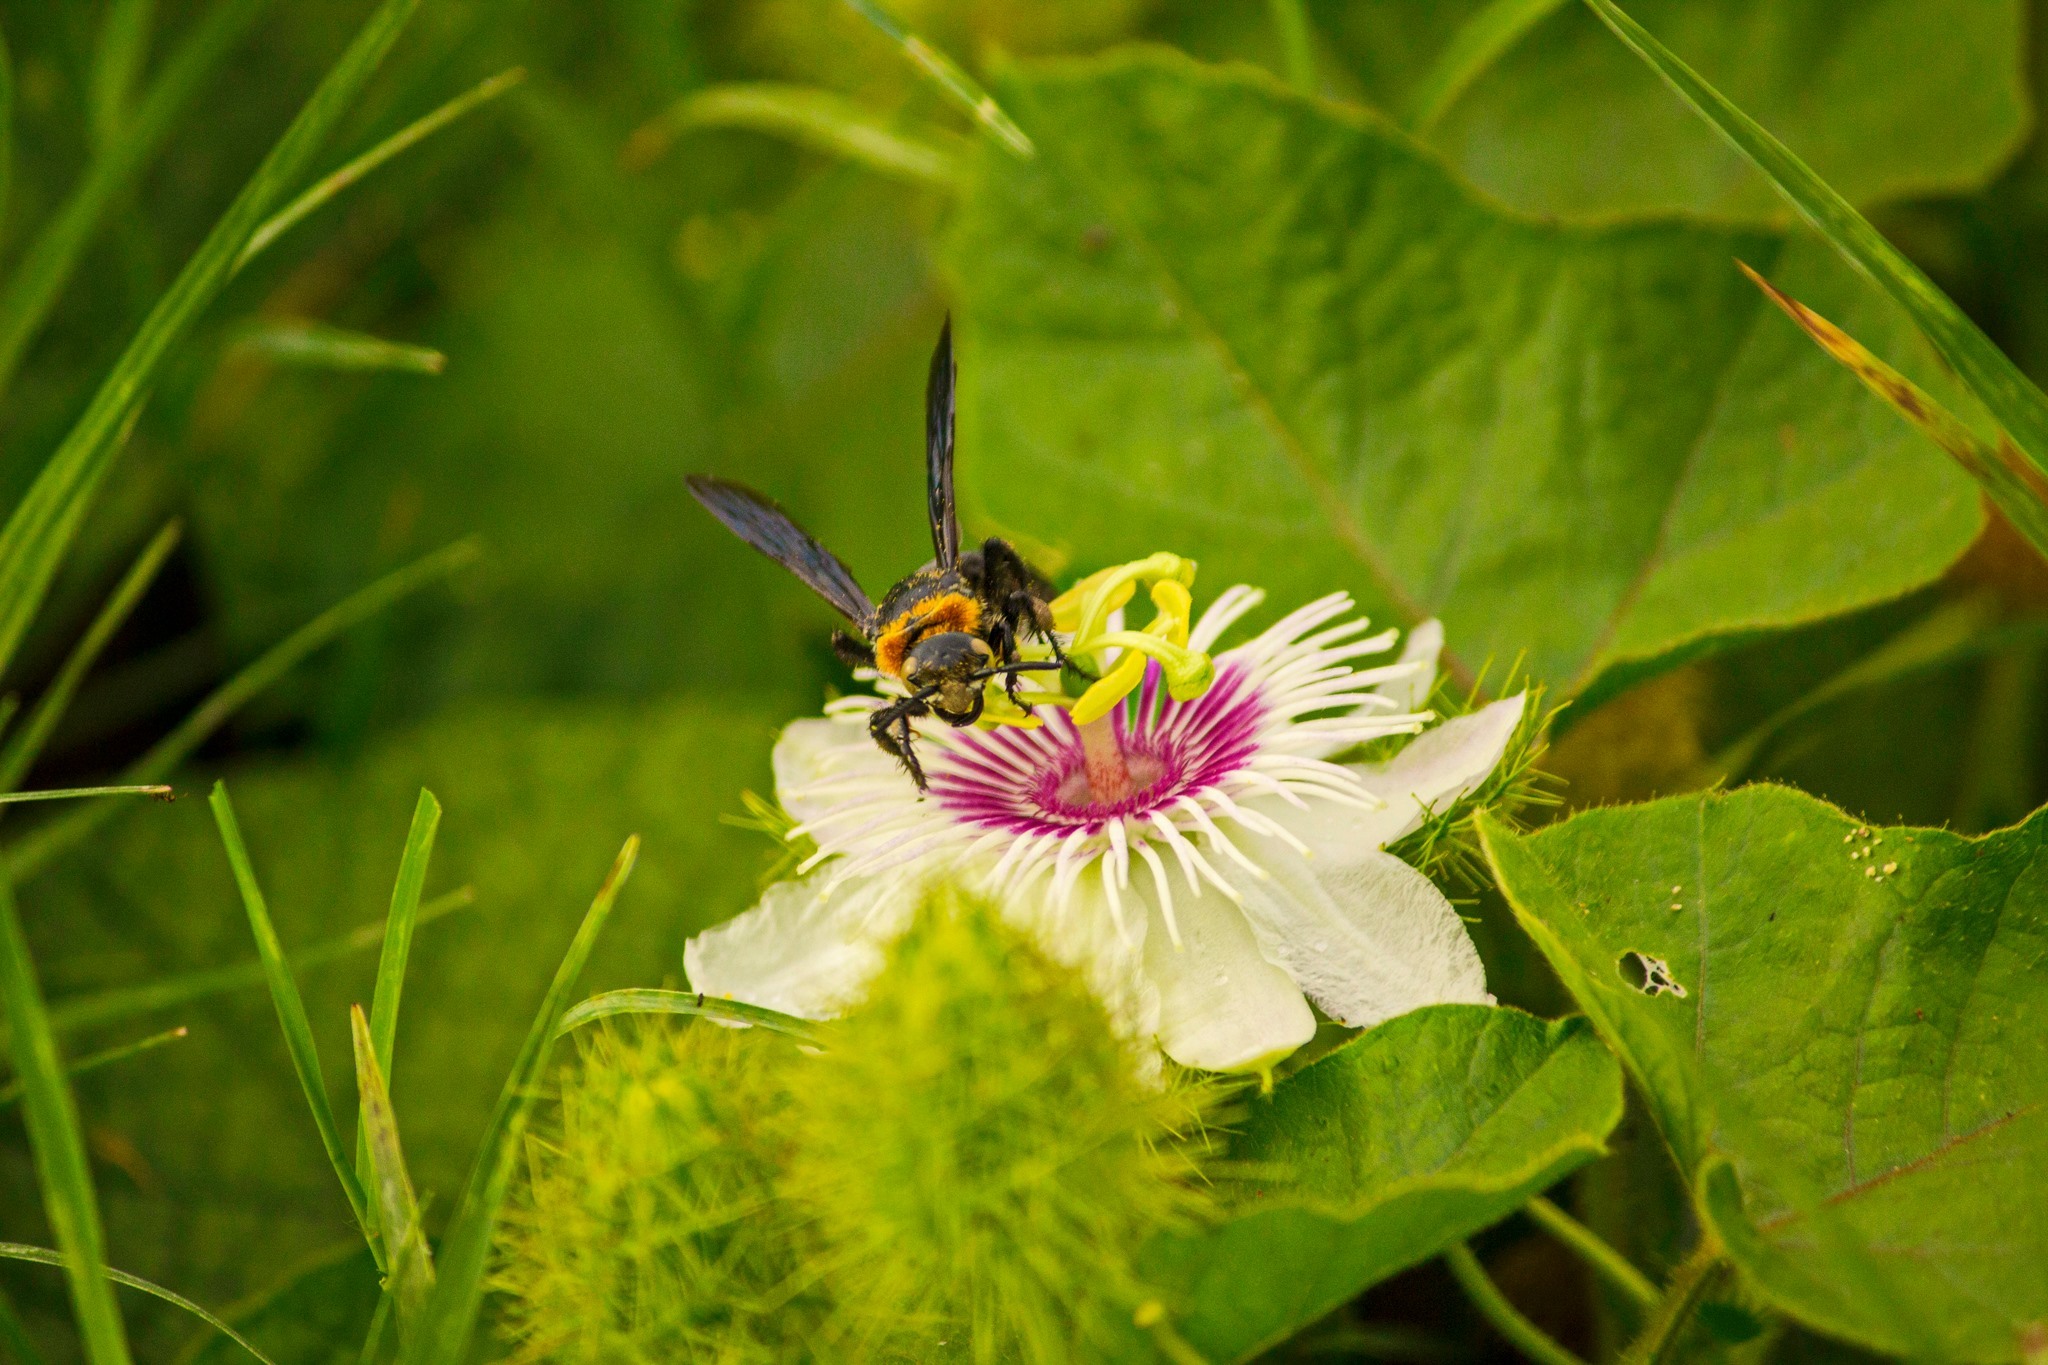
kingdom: Plantae
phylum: Tracheophyta
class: Magnoliopsida
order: Malpighiales
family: Passifloraceae
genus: Passiflora
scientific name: Passiflora foetida
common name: Fetid passionflower
